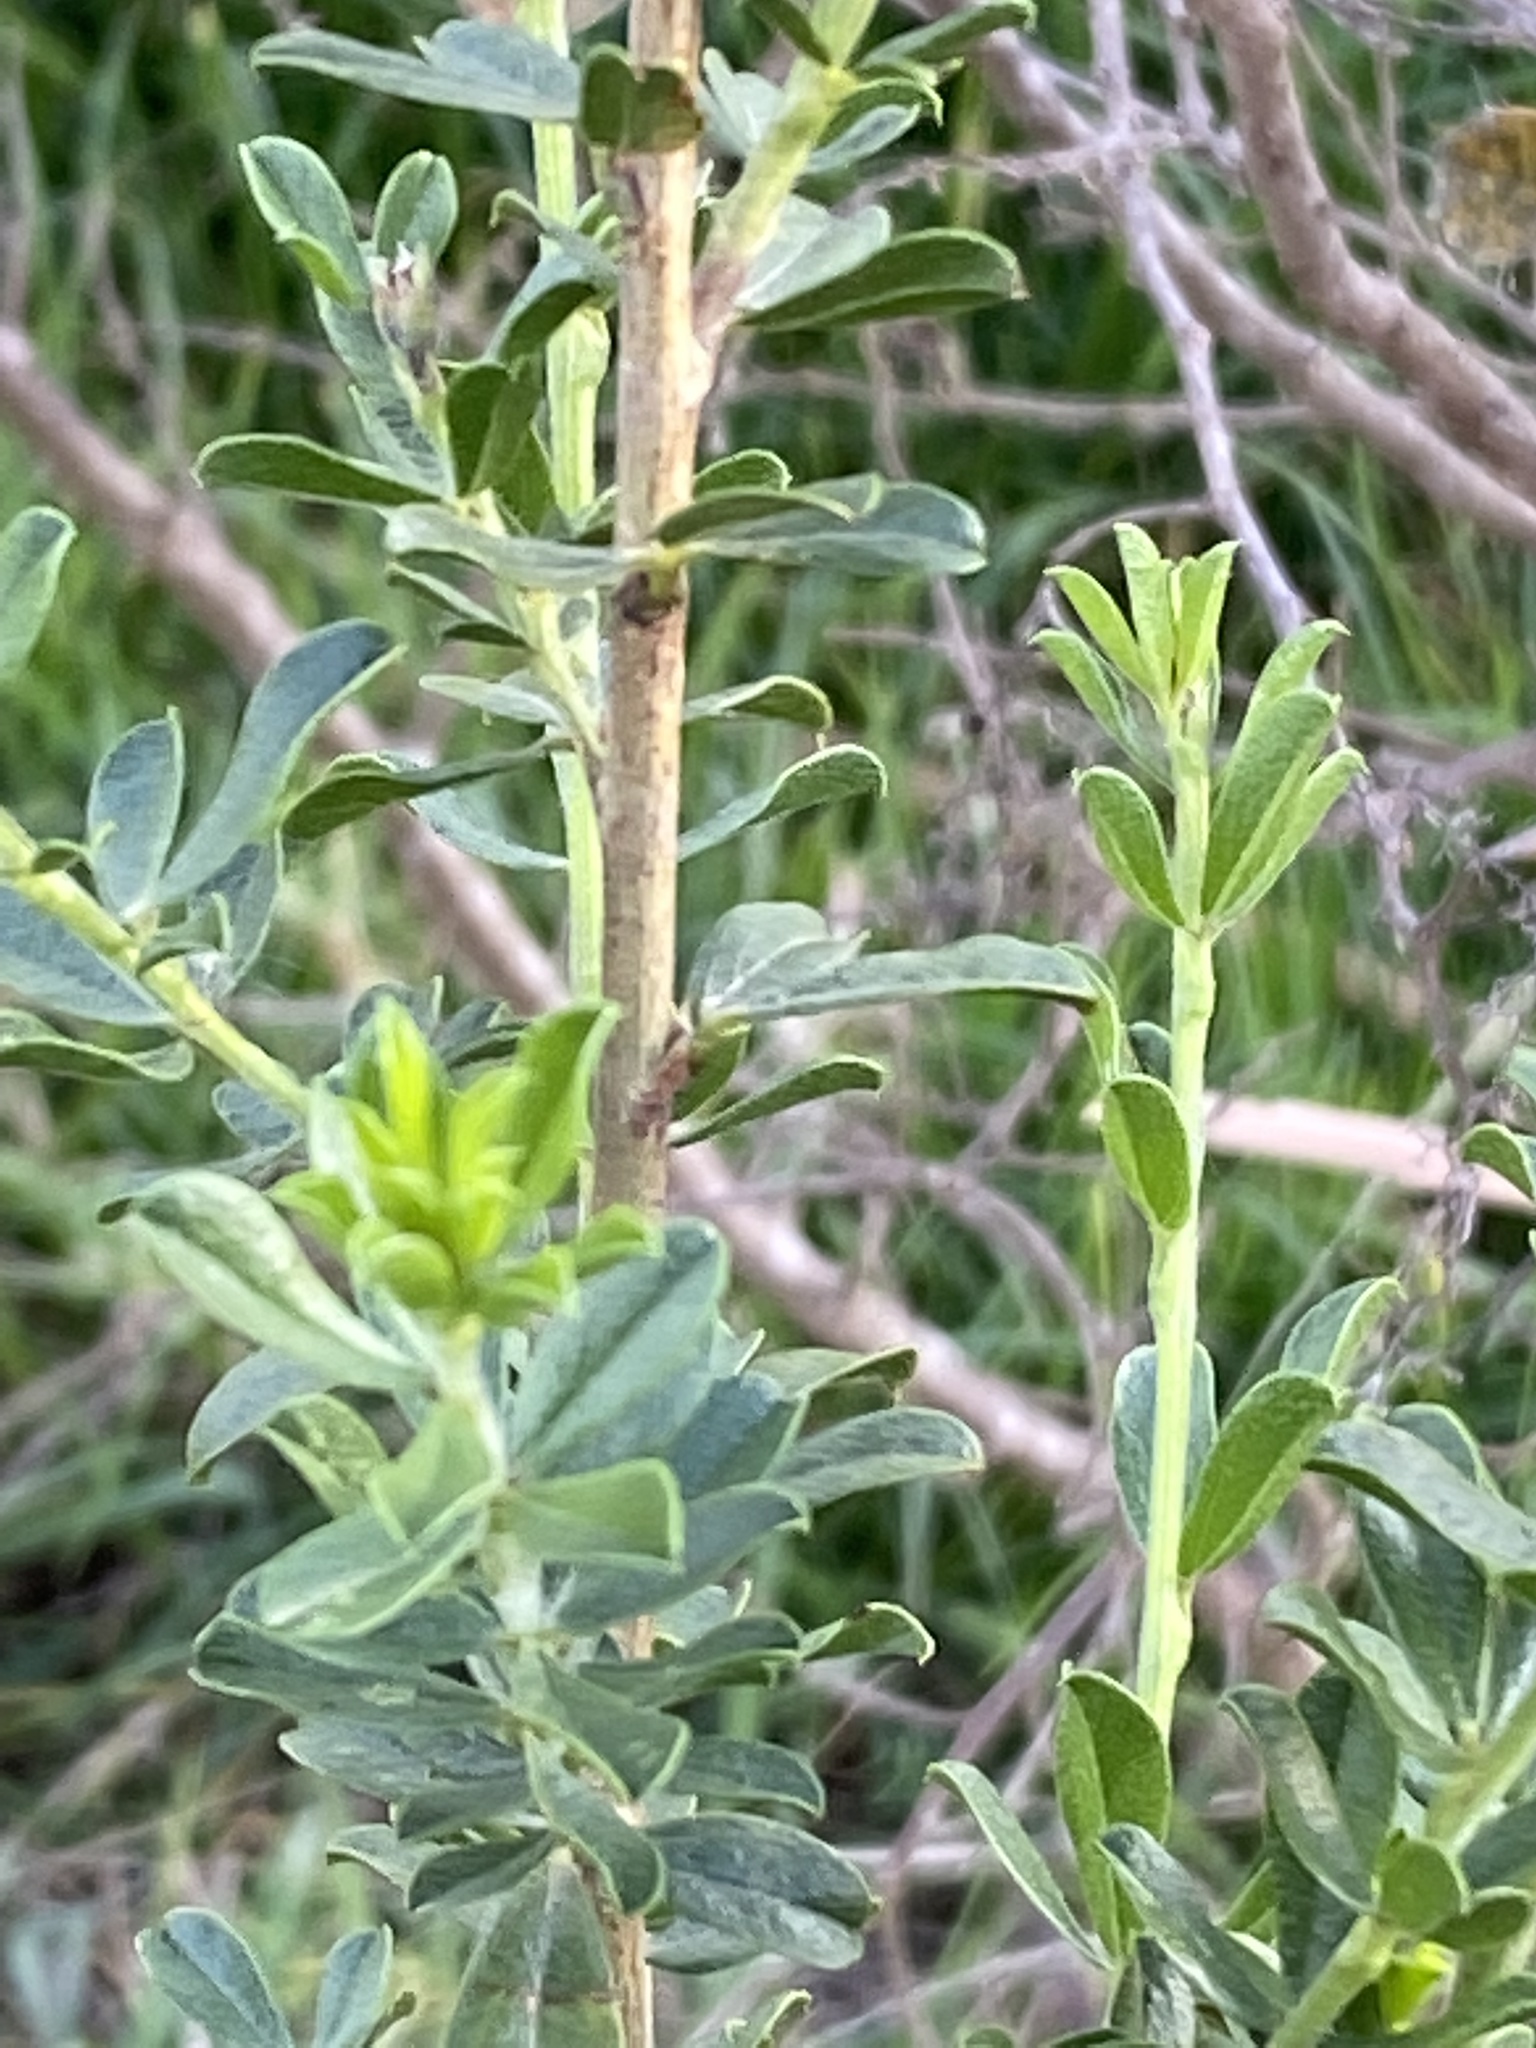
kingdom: Plantae
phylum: Tracheophyta
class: Magnoliopsida
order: Fabales
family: Fabaceae
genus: Psoralea
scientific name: Psoralea stachyera
